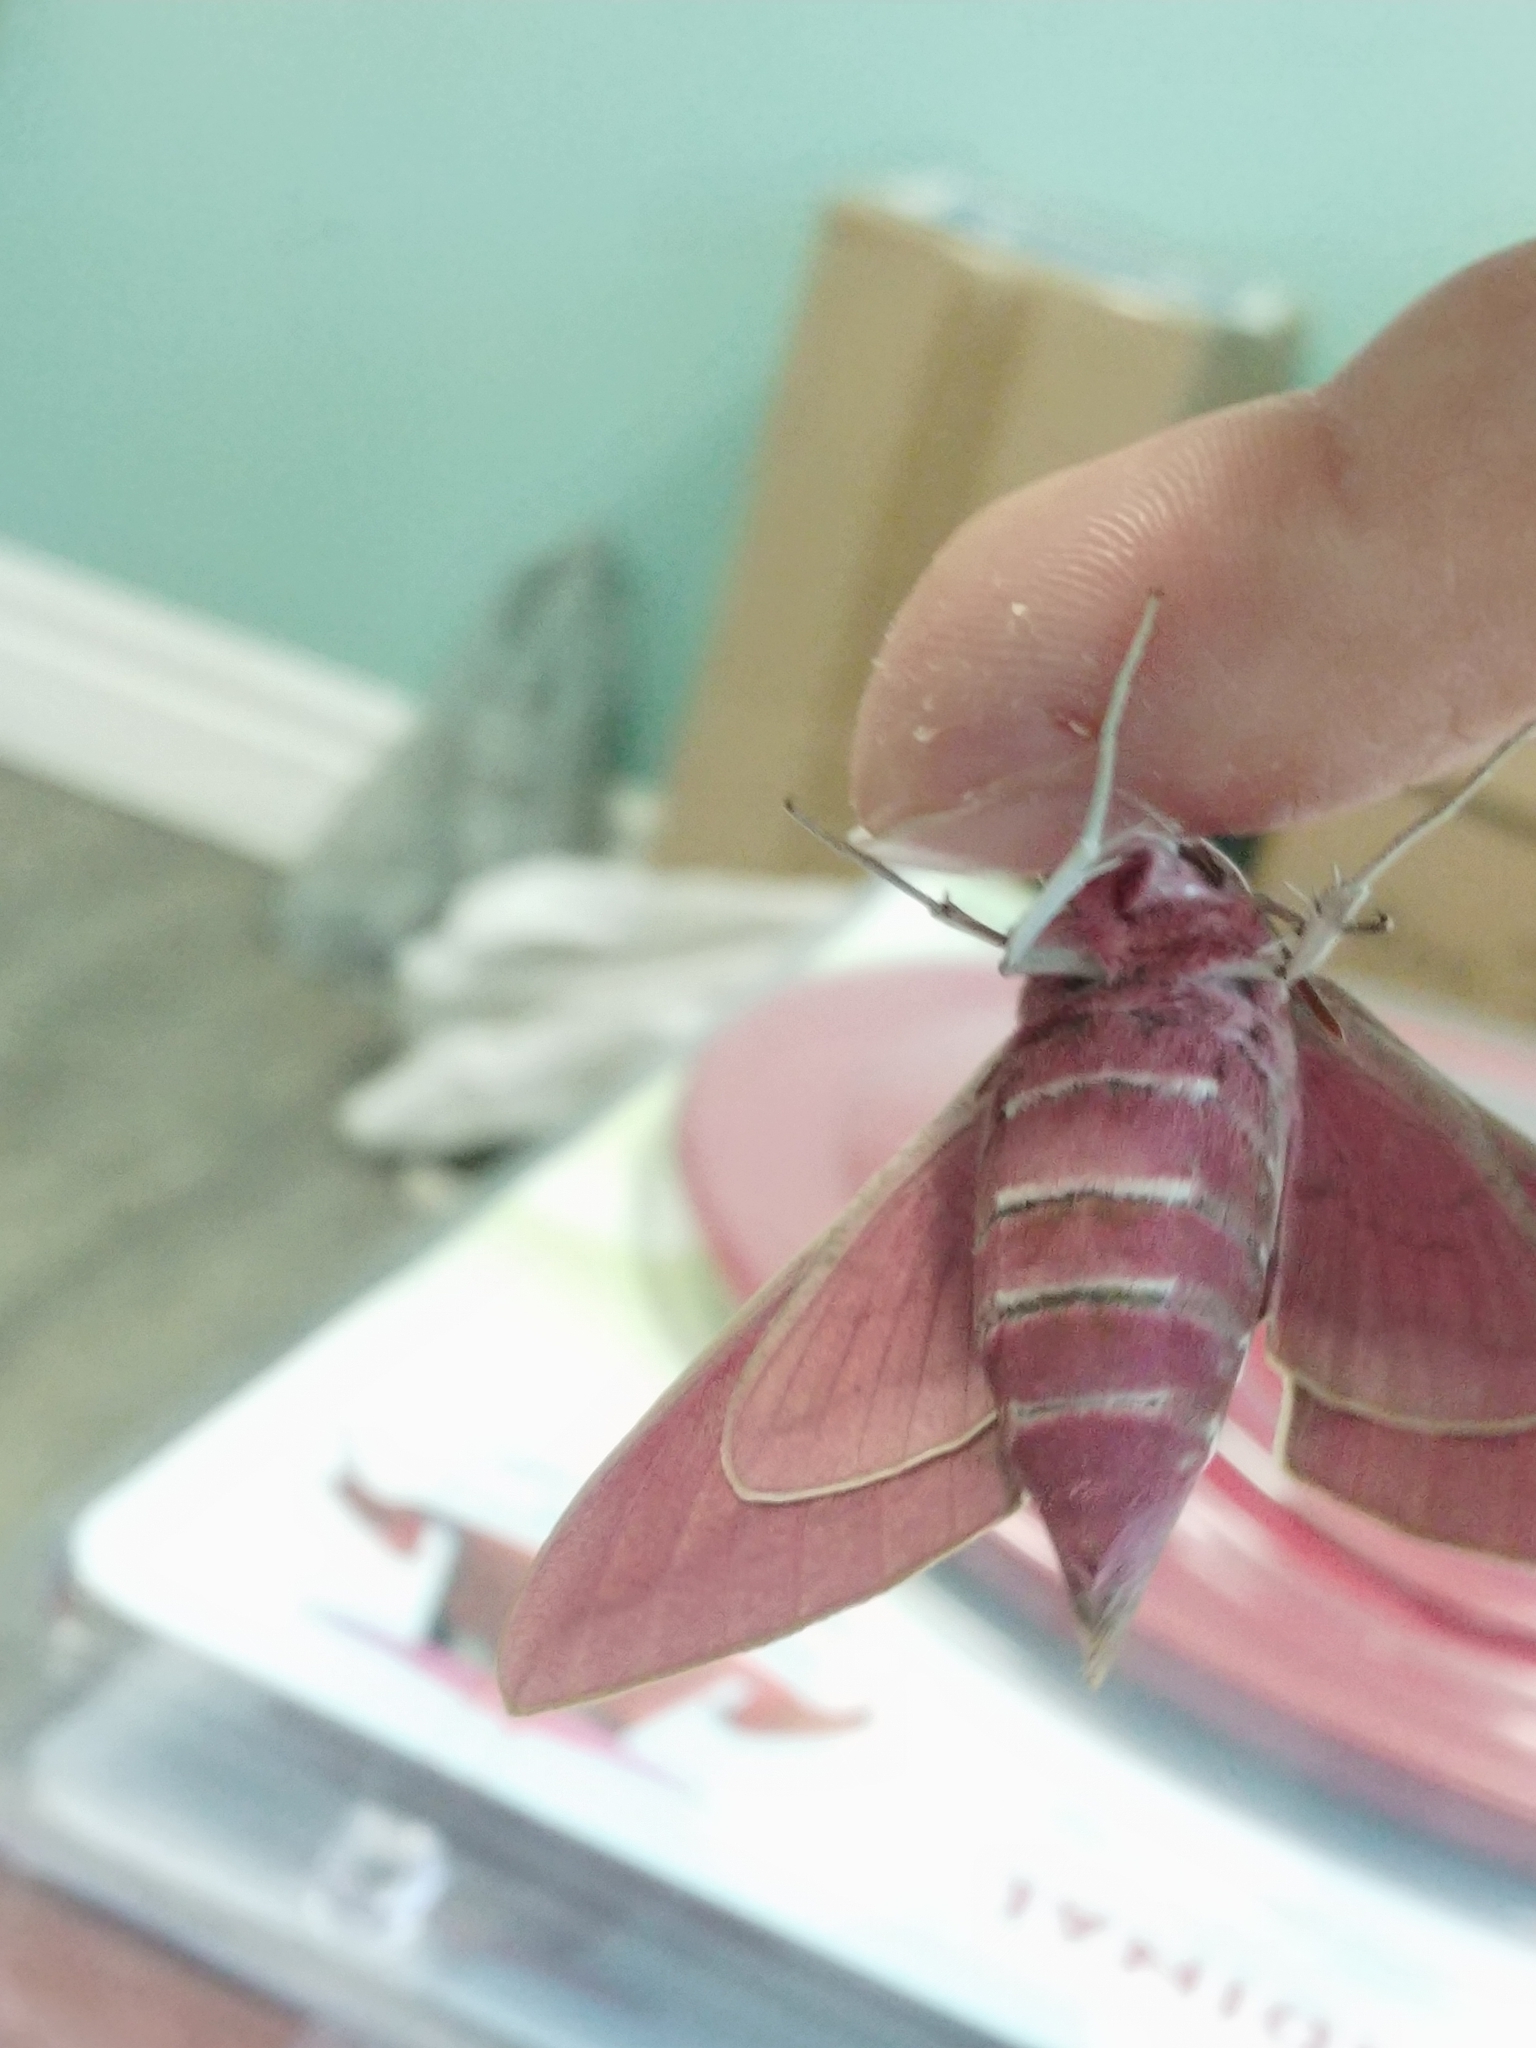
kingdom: Animalia
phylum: Arthropoda
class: Insecta
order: Lepidoptera
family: Sphingidae
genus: Hyles
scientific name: Hyles euphorbiae
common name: Spurge hawk-moth
